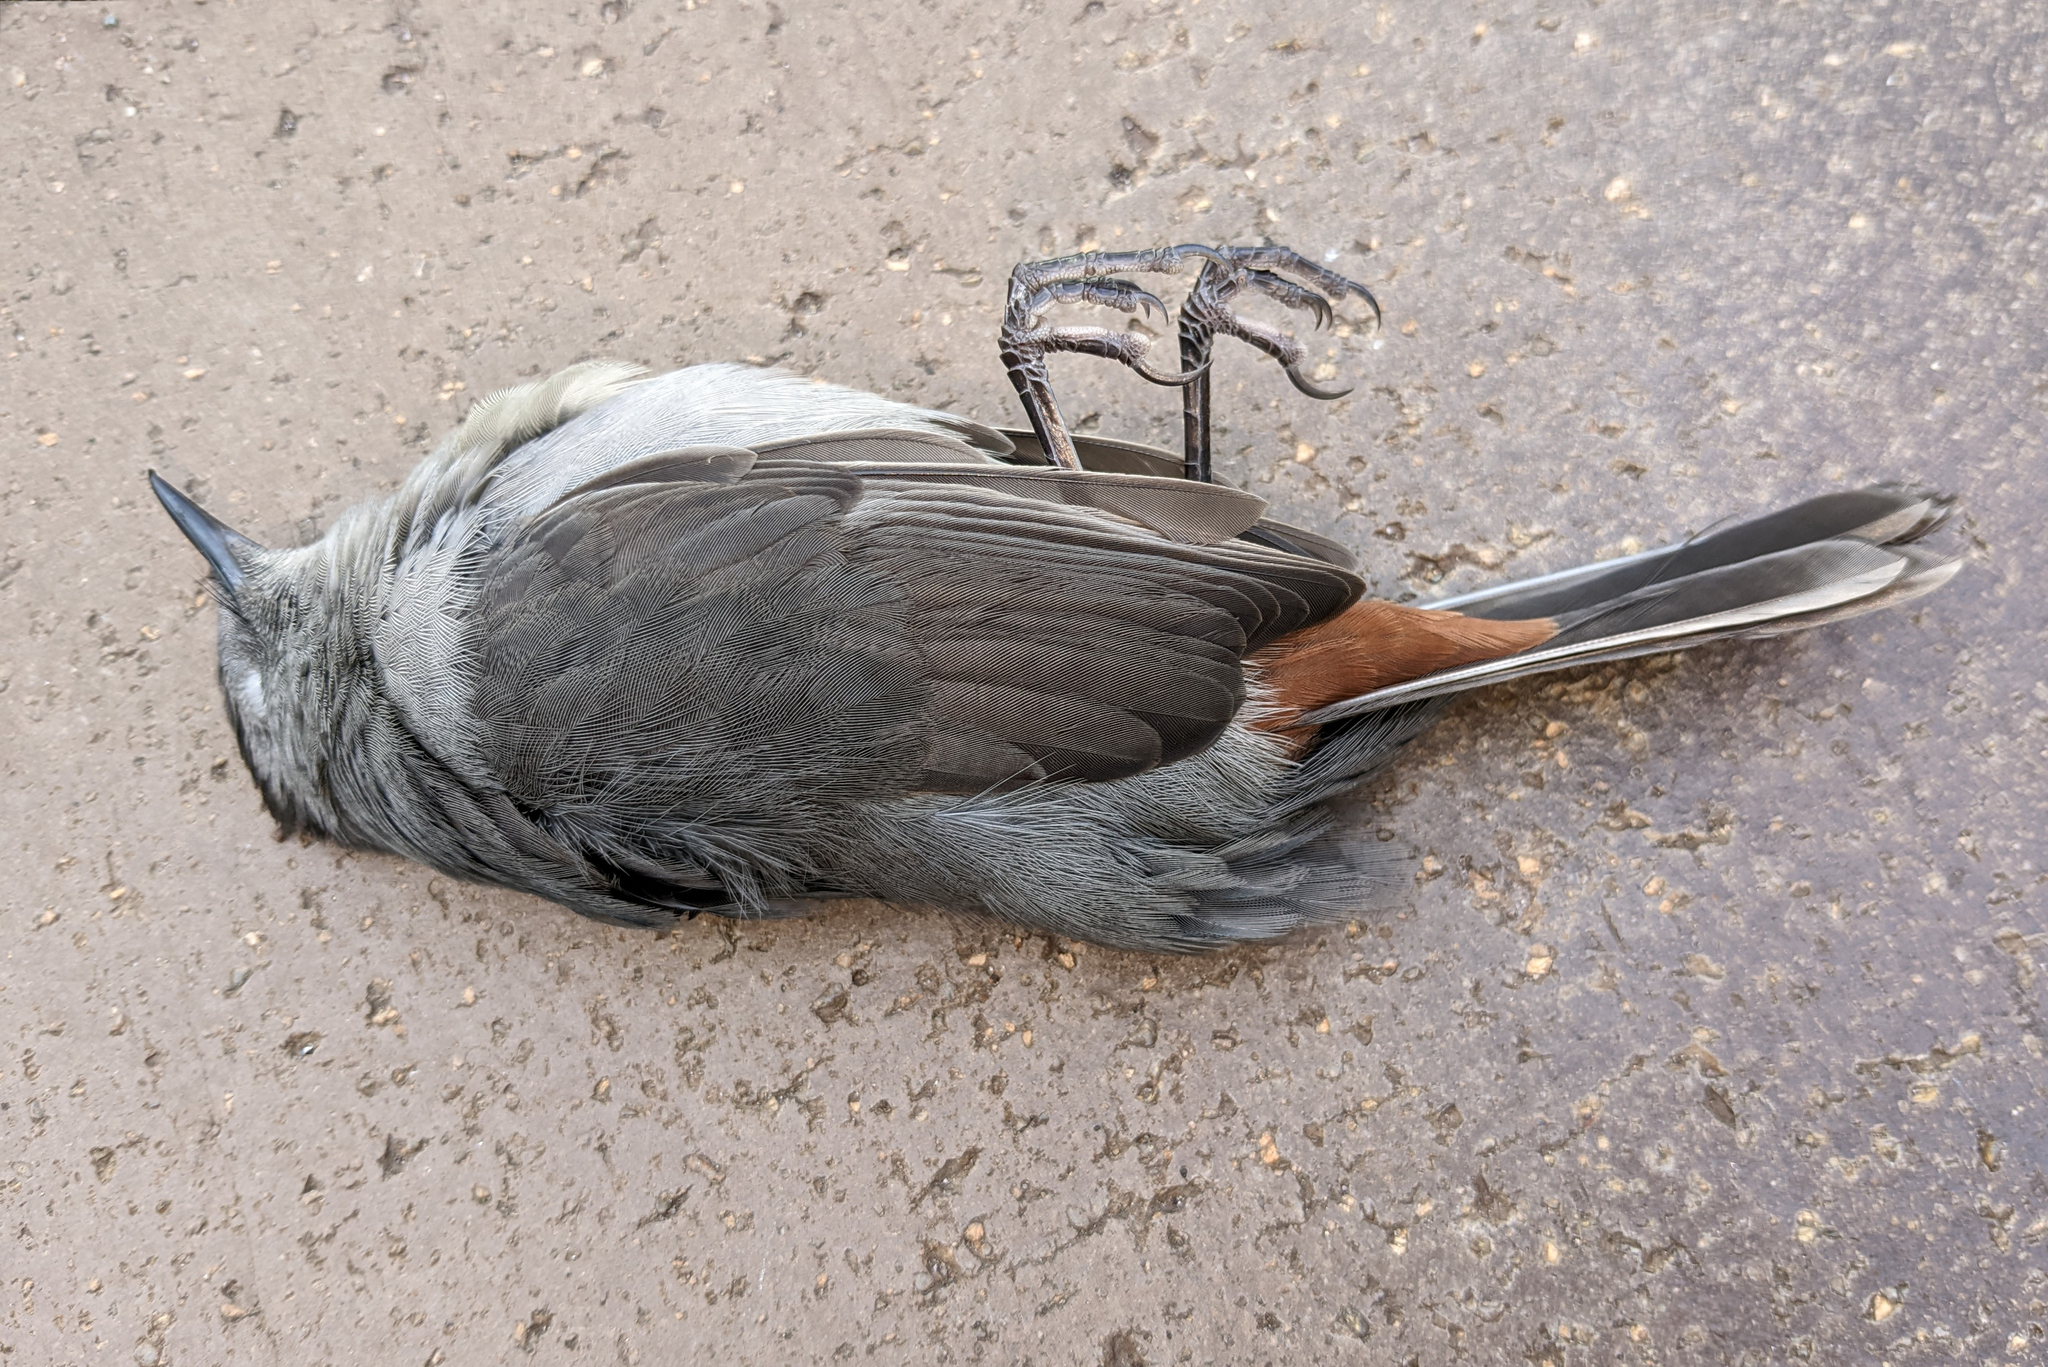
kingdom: Animalia
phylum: Chordata
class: Aves
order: Passeriformes
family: Mimidae
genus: Dumetella
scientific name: Dumetella carolinensis
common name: Gray catbird
